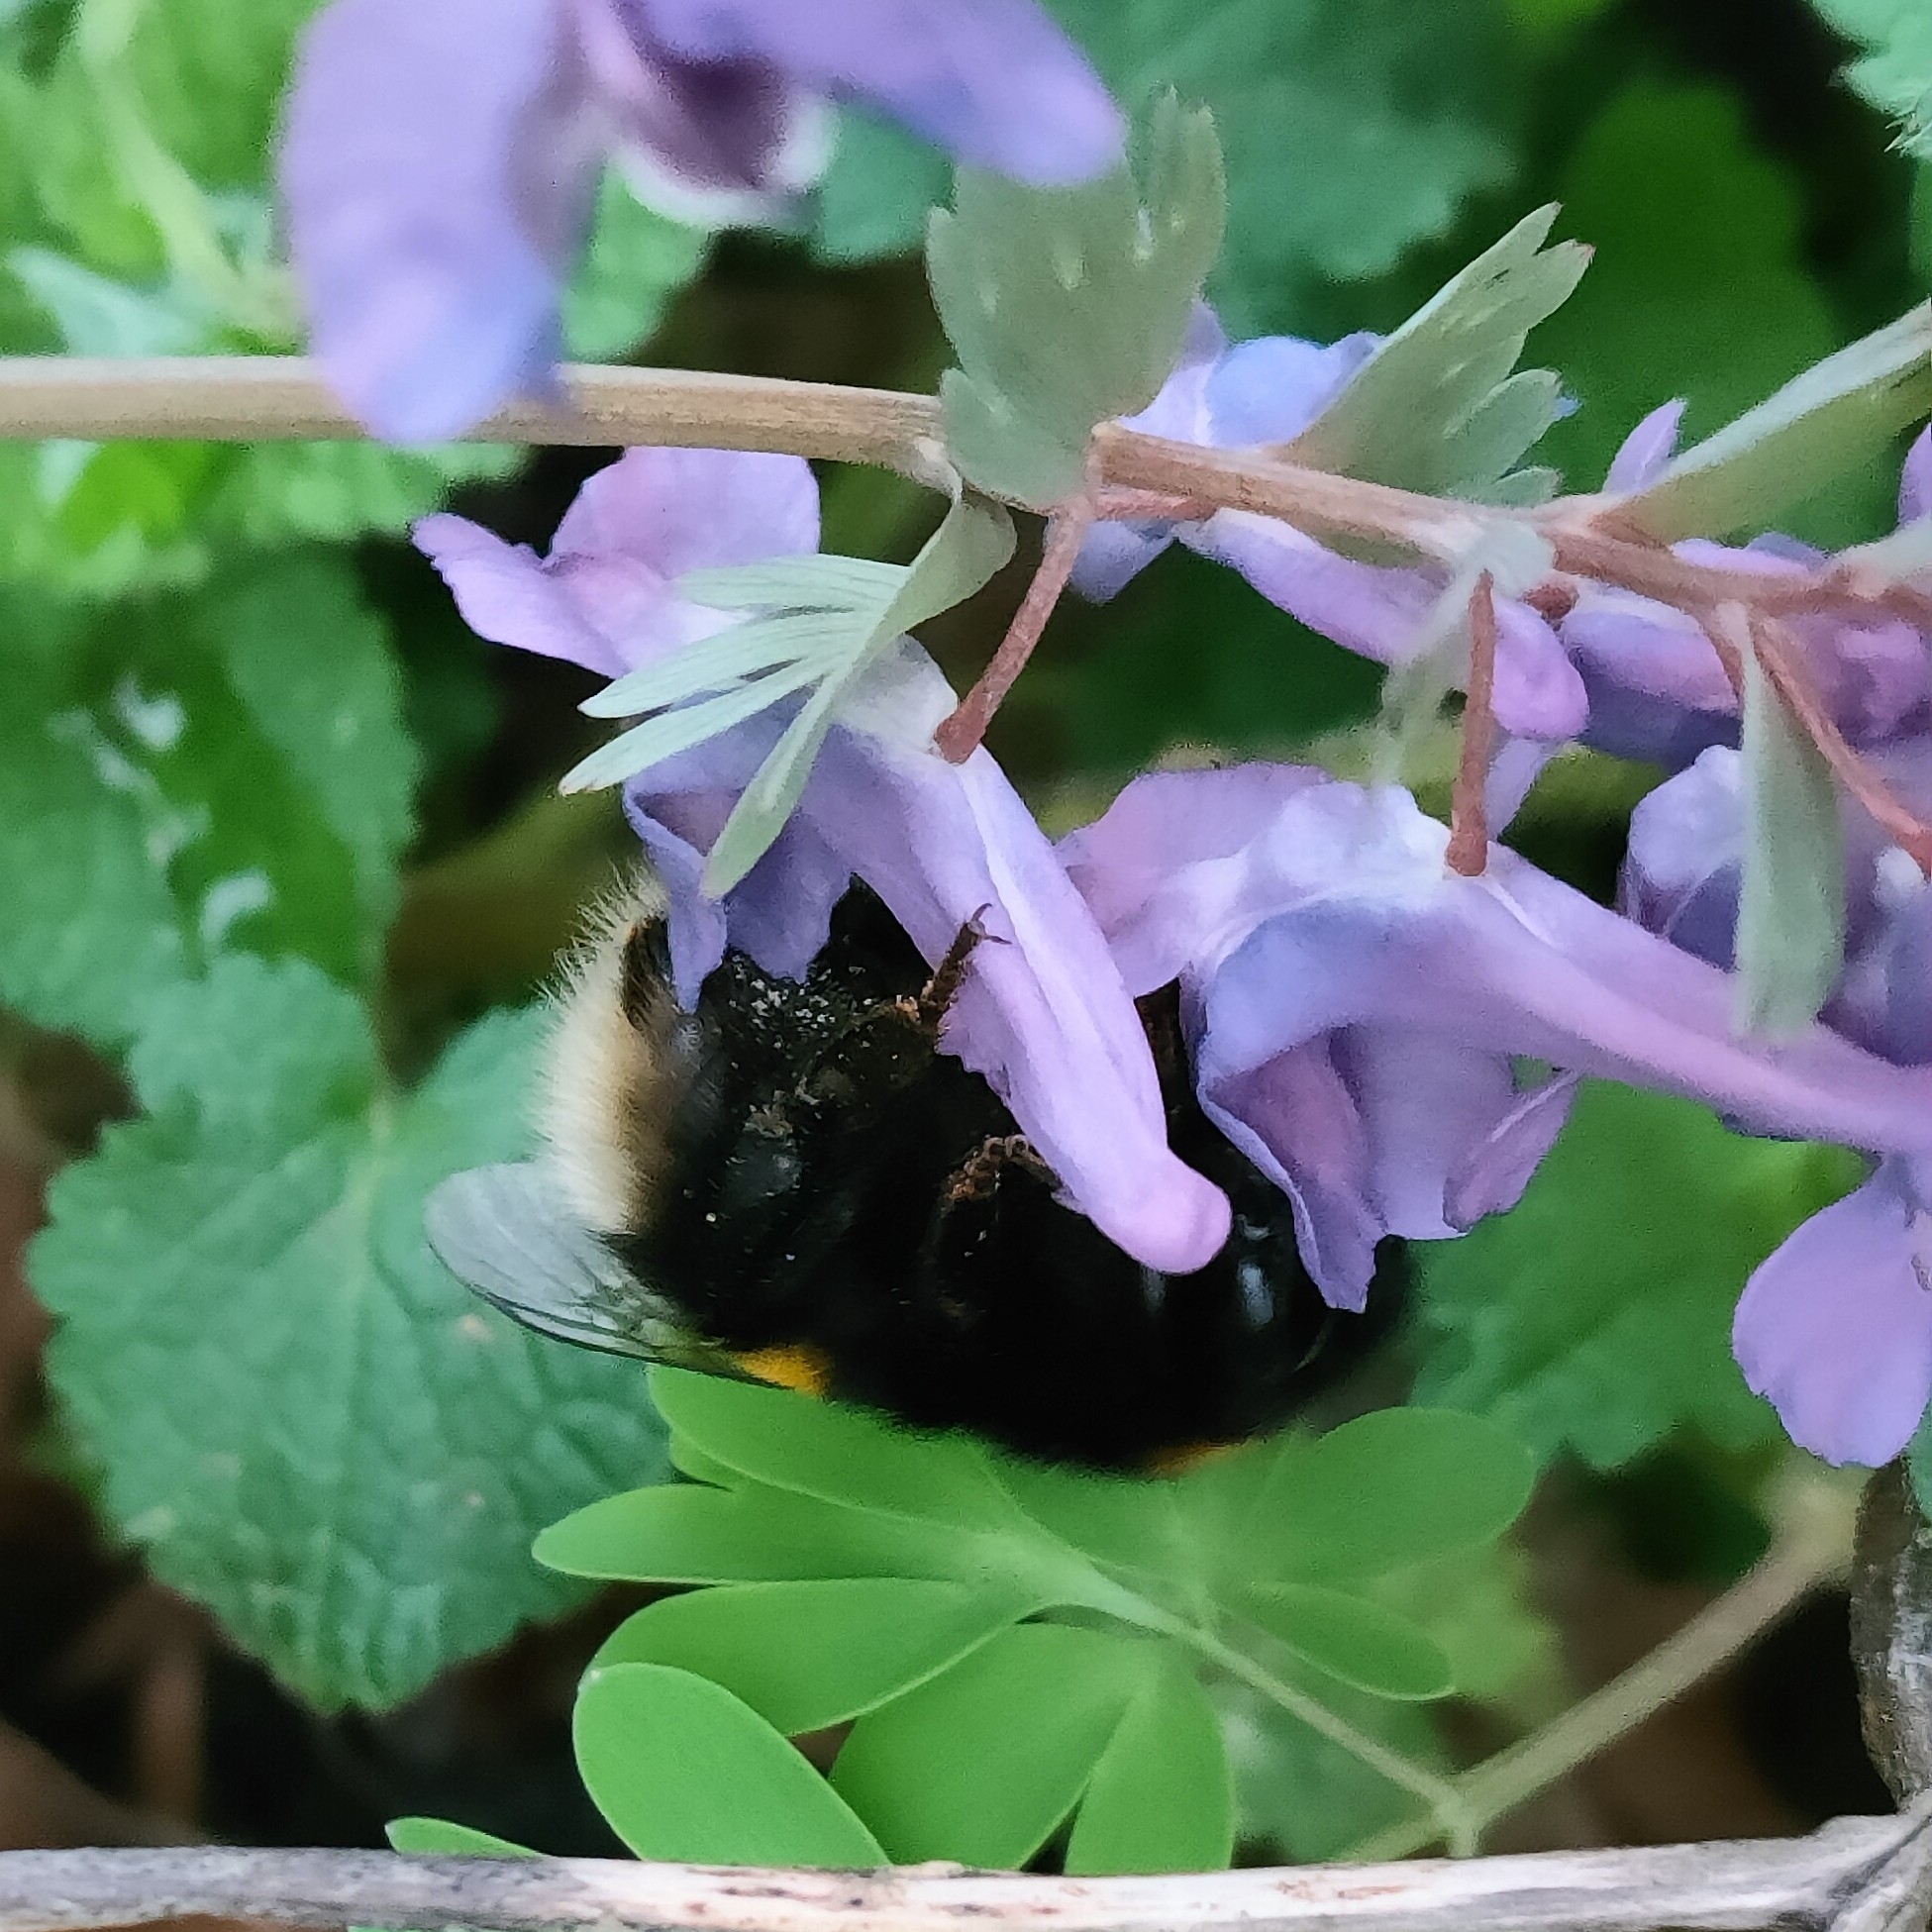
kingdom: Animalia
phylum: Arthropoda
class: Insecta
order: Hymenoptera
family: Apidae
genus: Bombus
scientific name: Bombus
